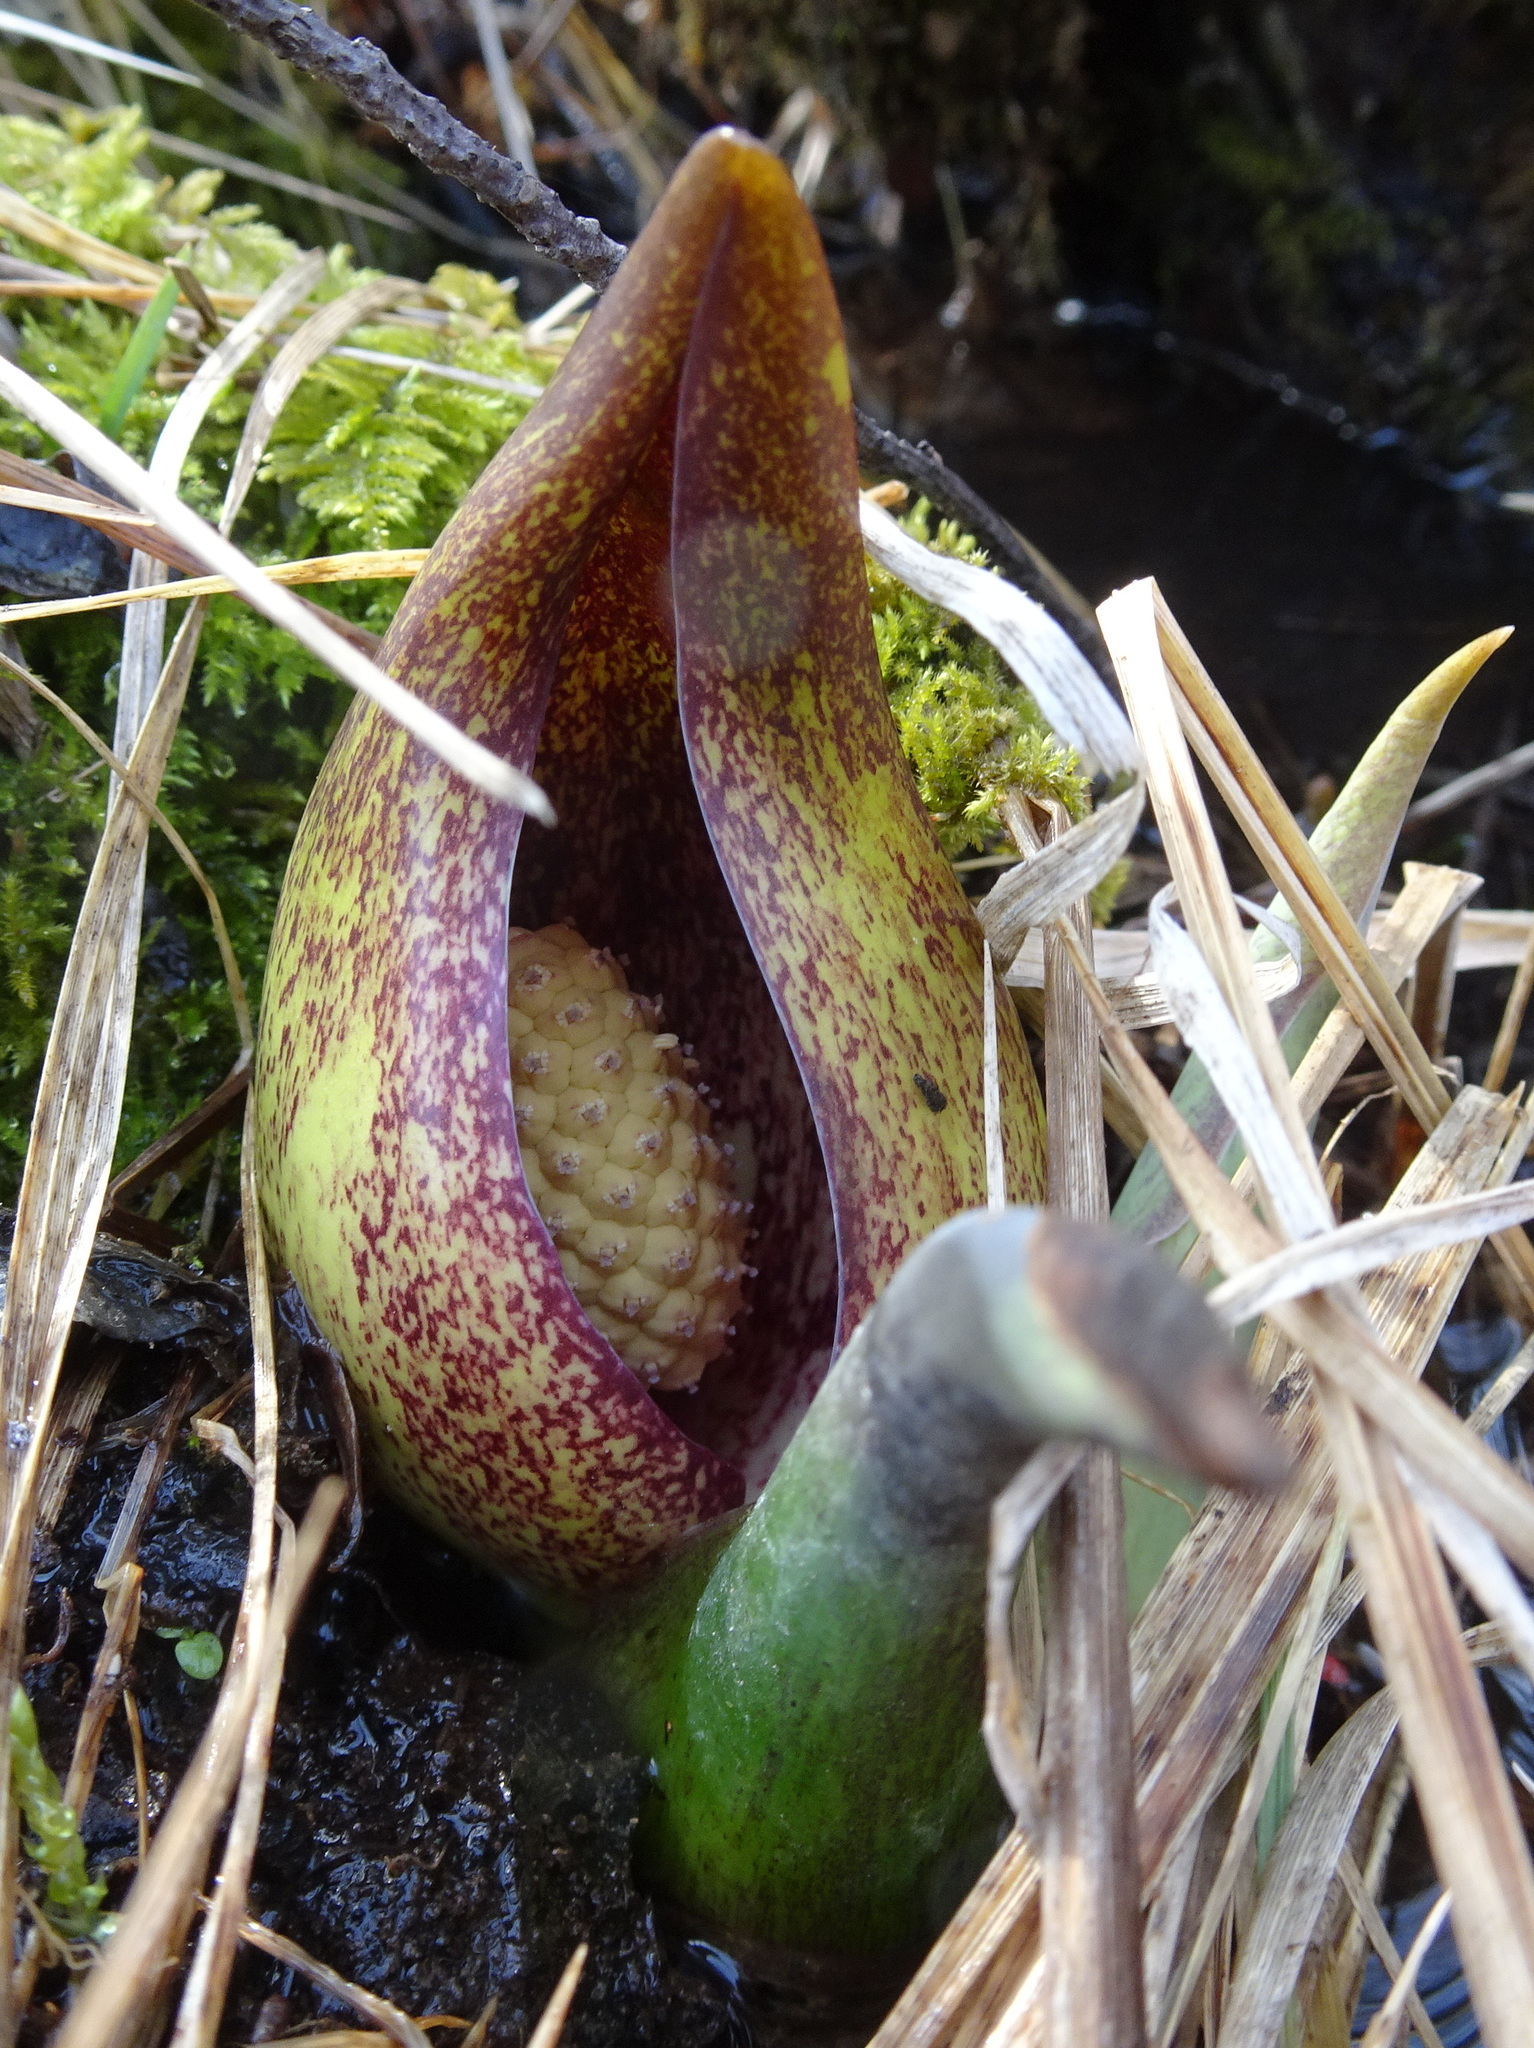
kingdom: Plantae
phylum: Tracheophyta
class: Liliopsida
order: Alismatales
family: Araceae
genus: Symplocarpus
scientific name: Symplocarpus foetidus
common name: Eastern skunk cabbage
